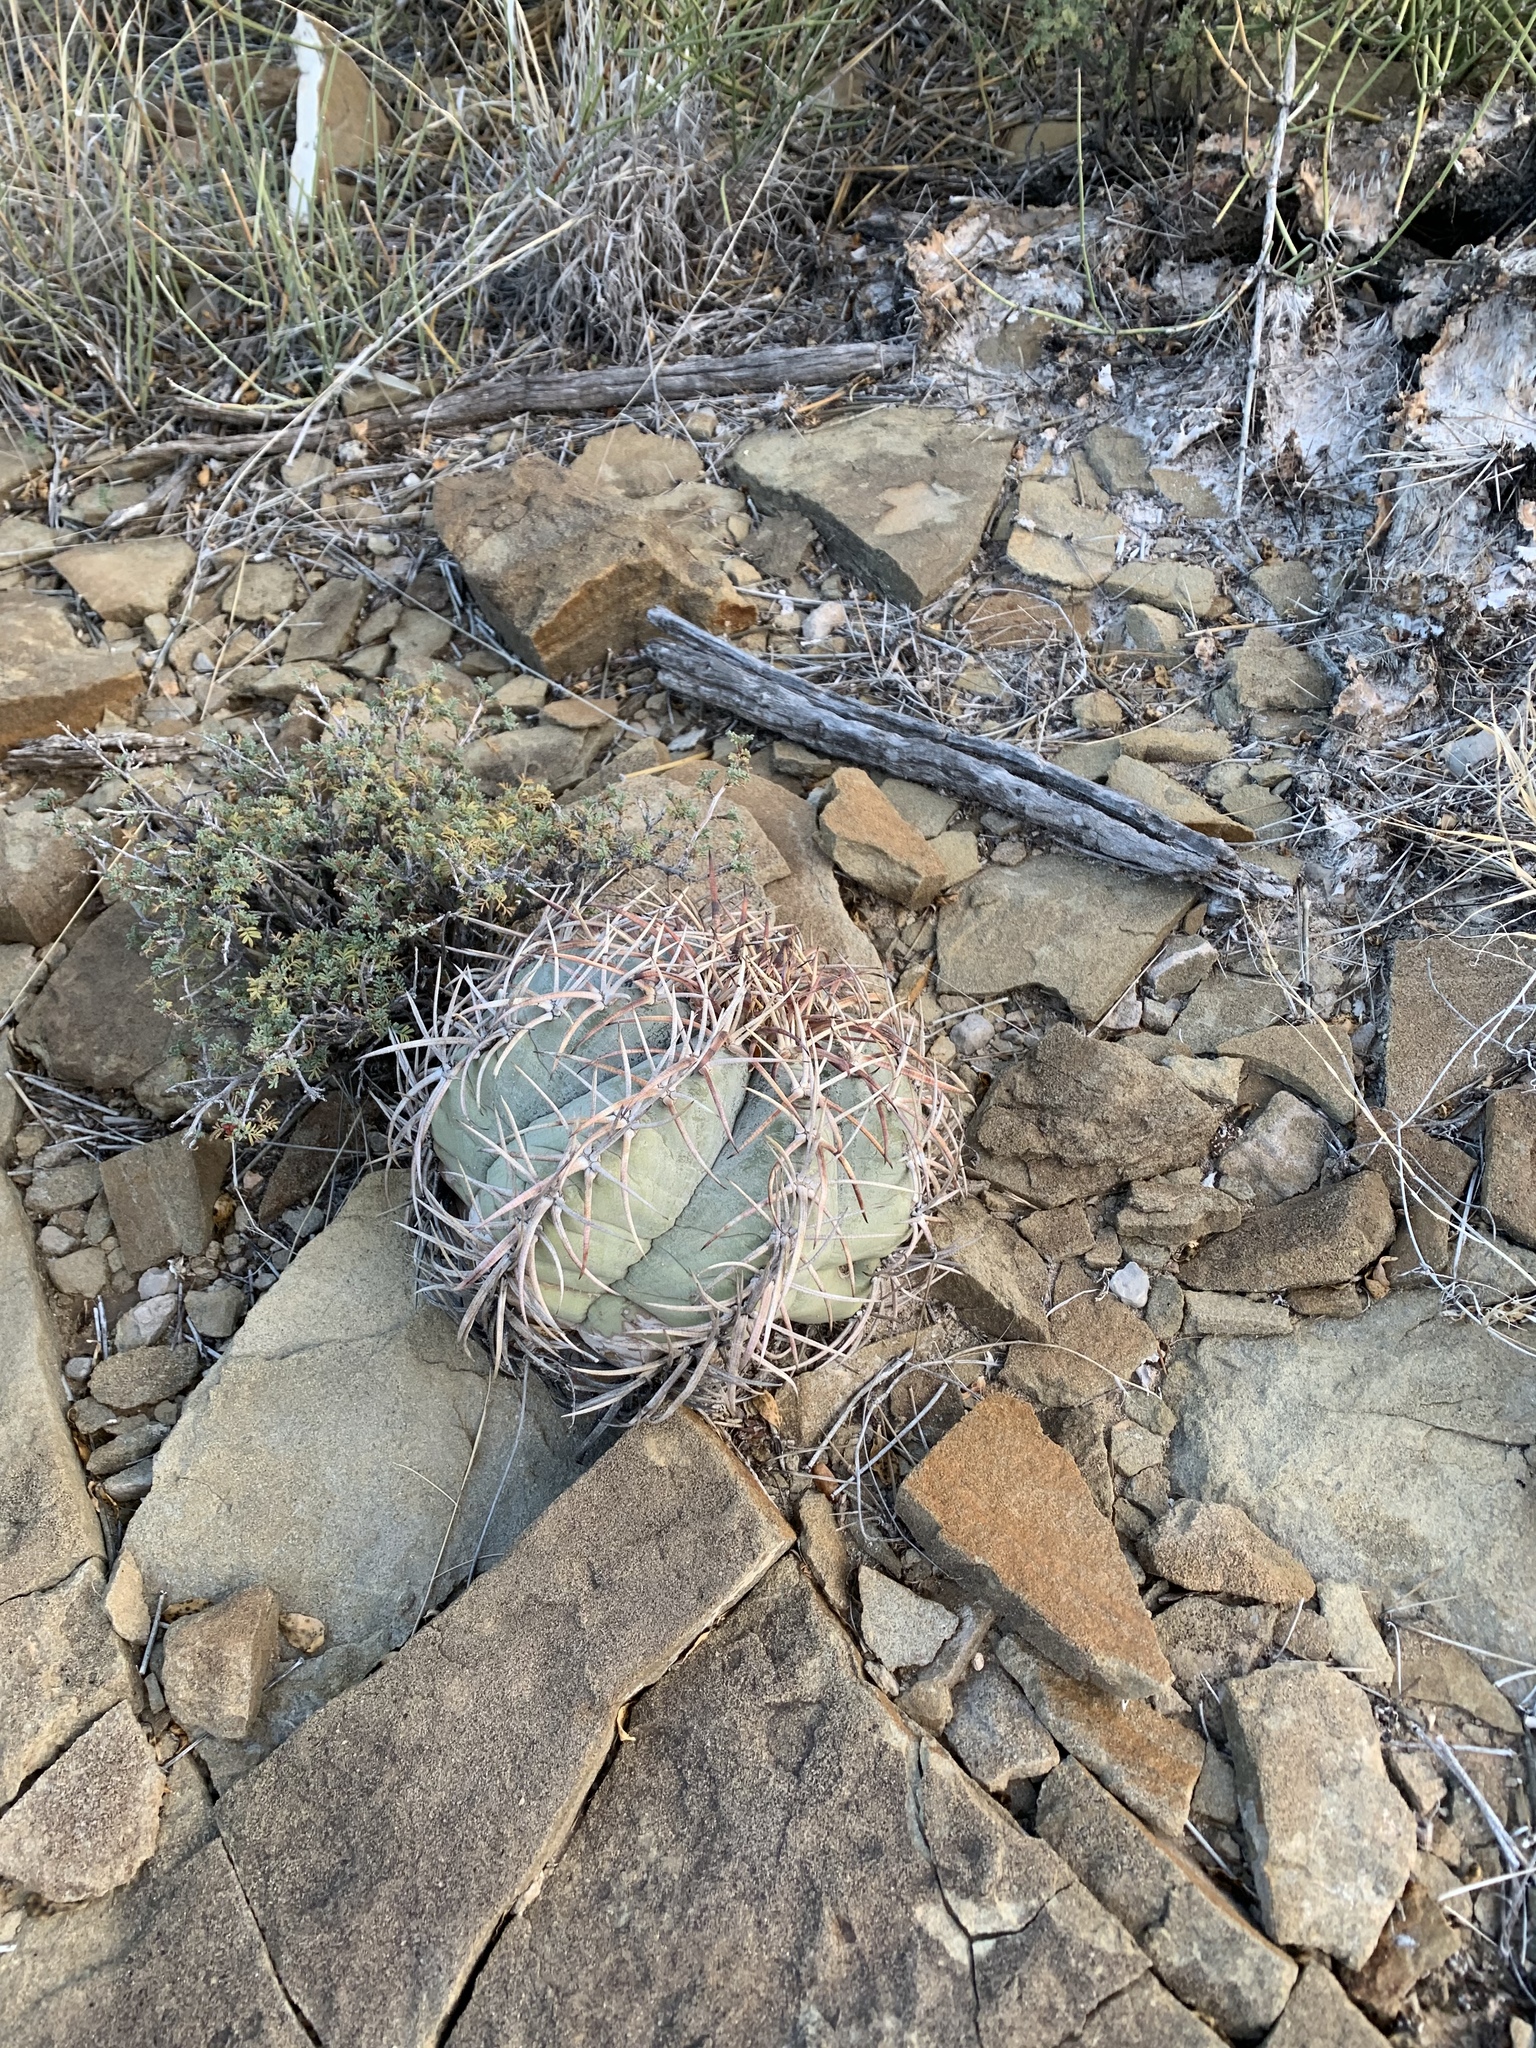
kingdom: Plantae
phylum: Tracheophyta
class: Magnoliopsida
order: Caryophyllales
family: Cactaceae
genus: Echinocactus
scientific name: Echinocactus horizonthalonius
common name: Devilshead
